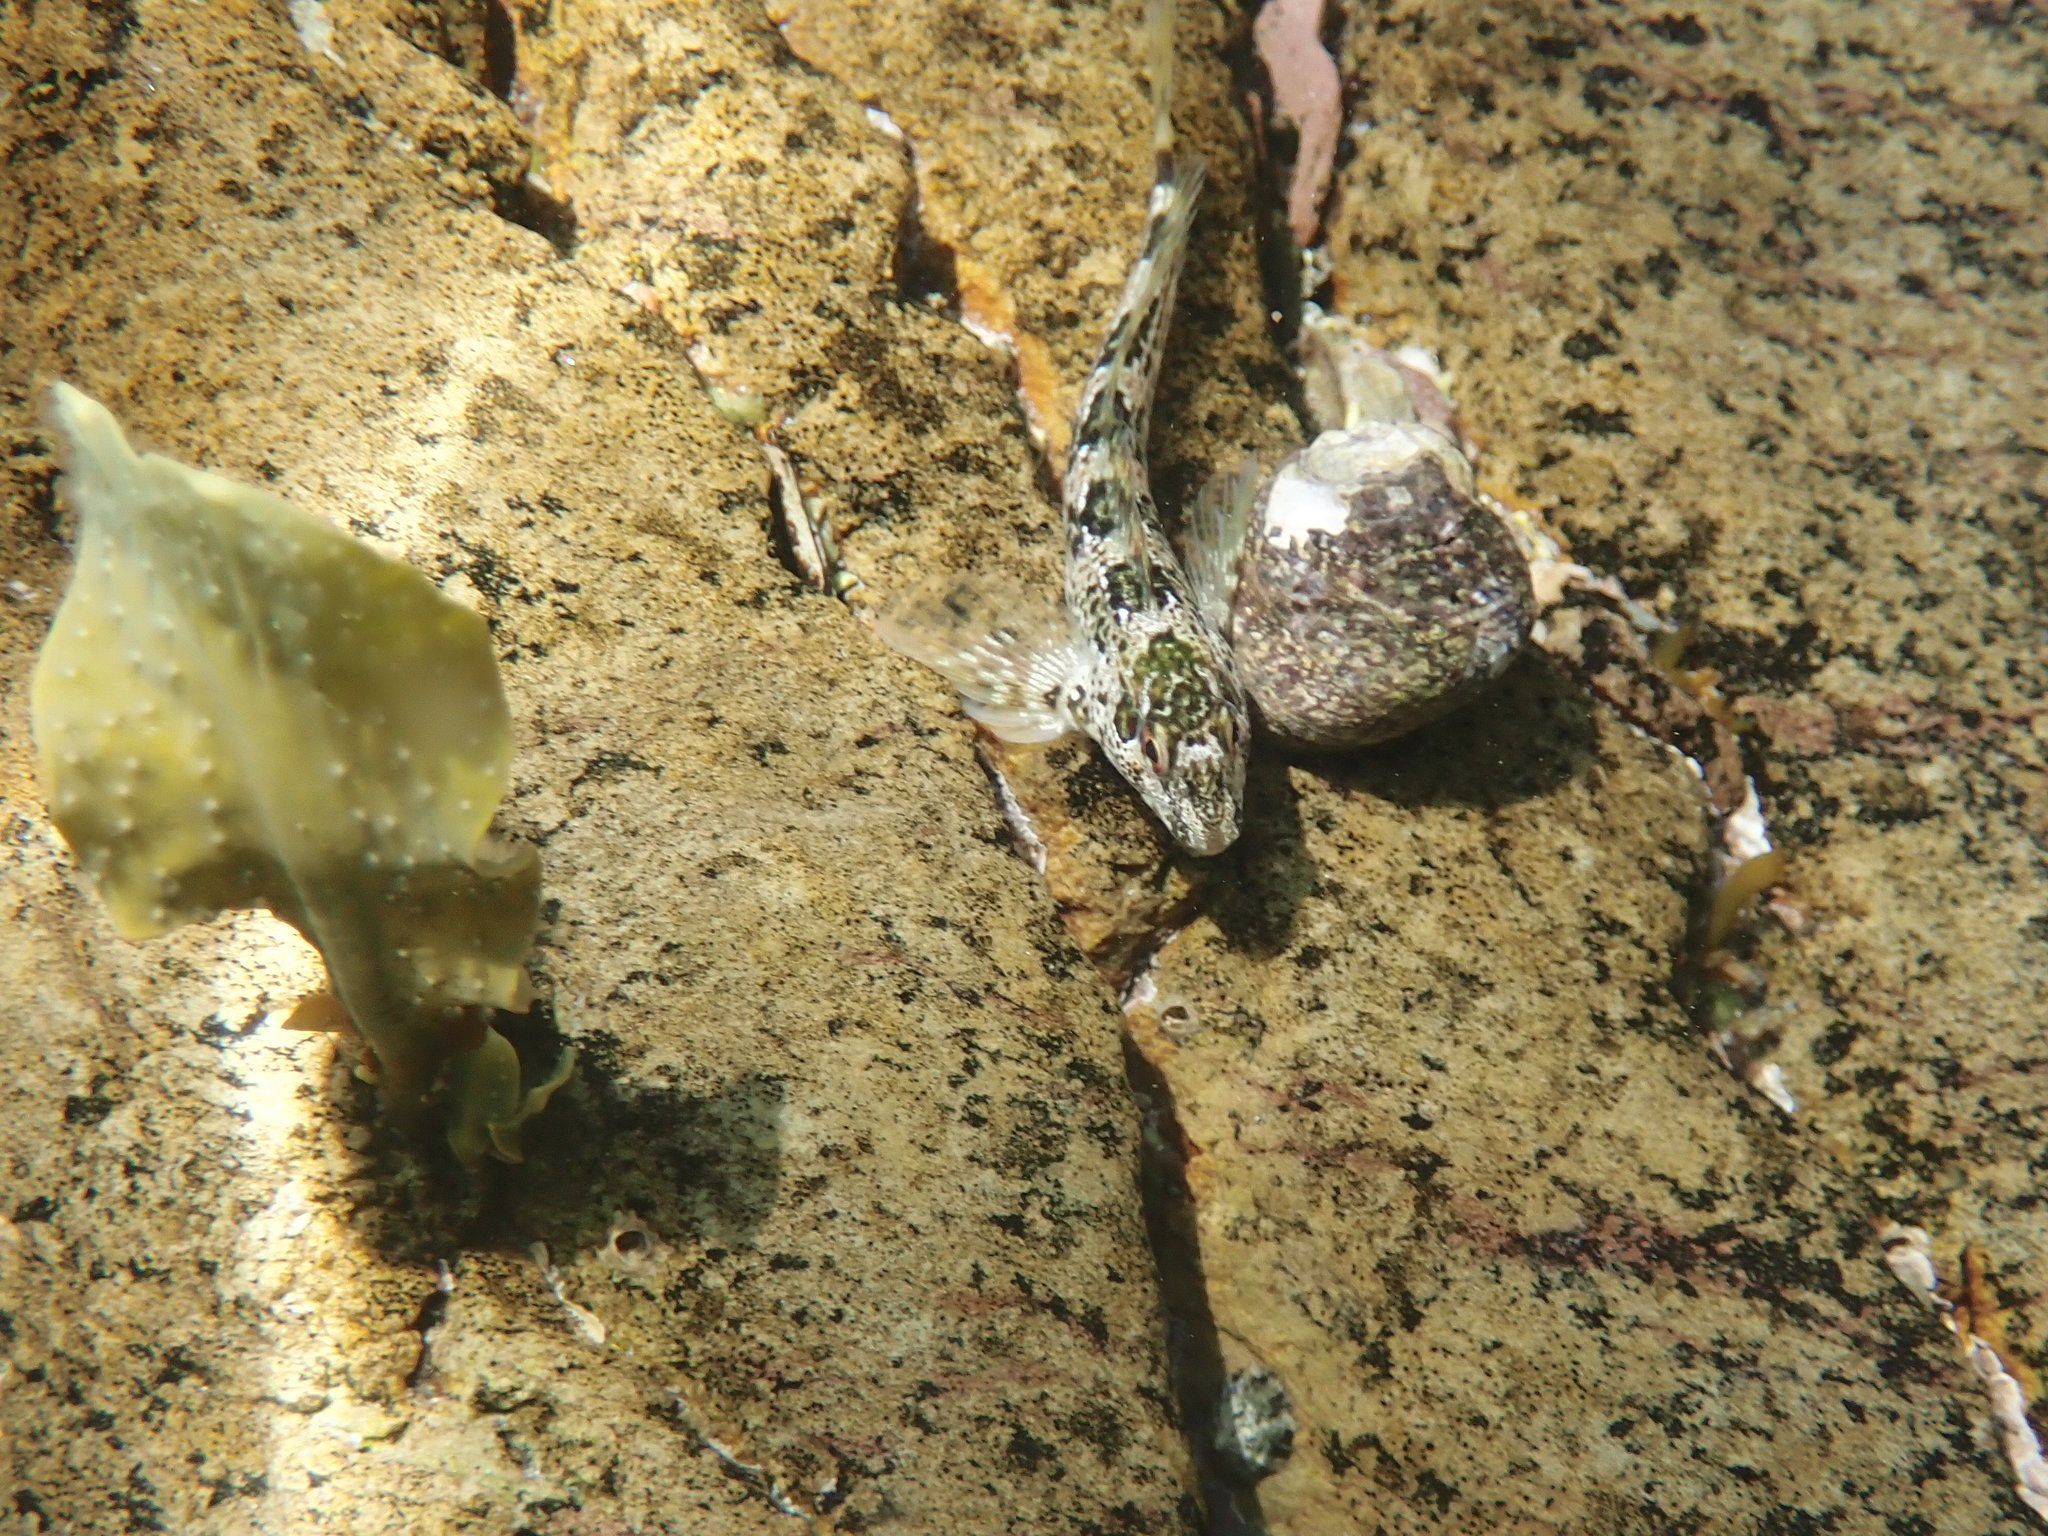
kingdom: Animalia
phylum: Chordata
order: Perciformes
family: Blenniidae
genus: Lipophrys
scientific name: Lipophrys pholis
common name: Shanny
